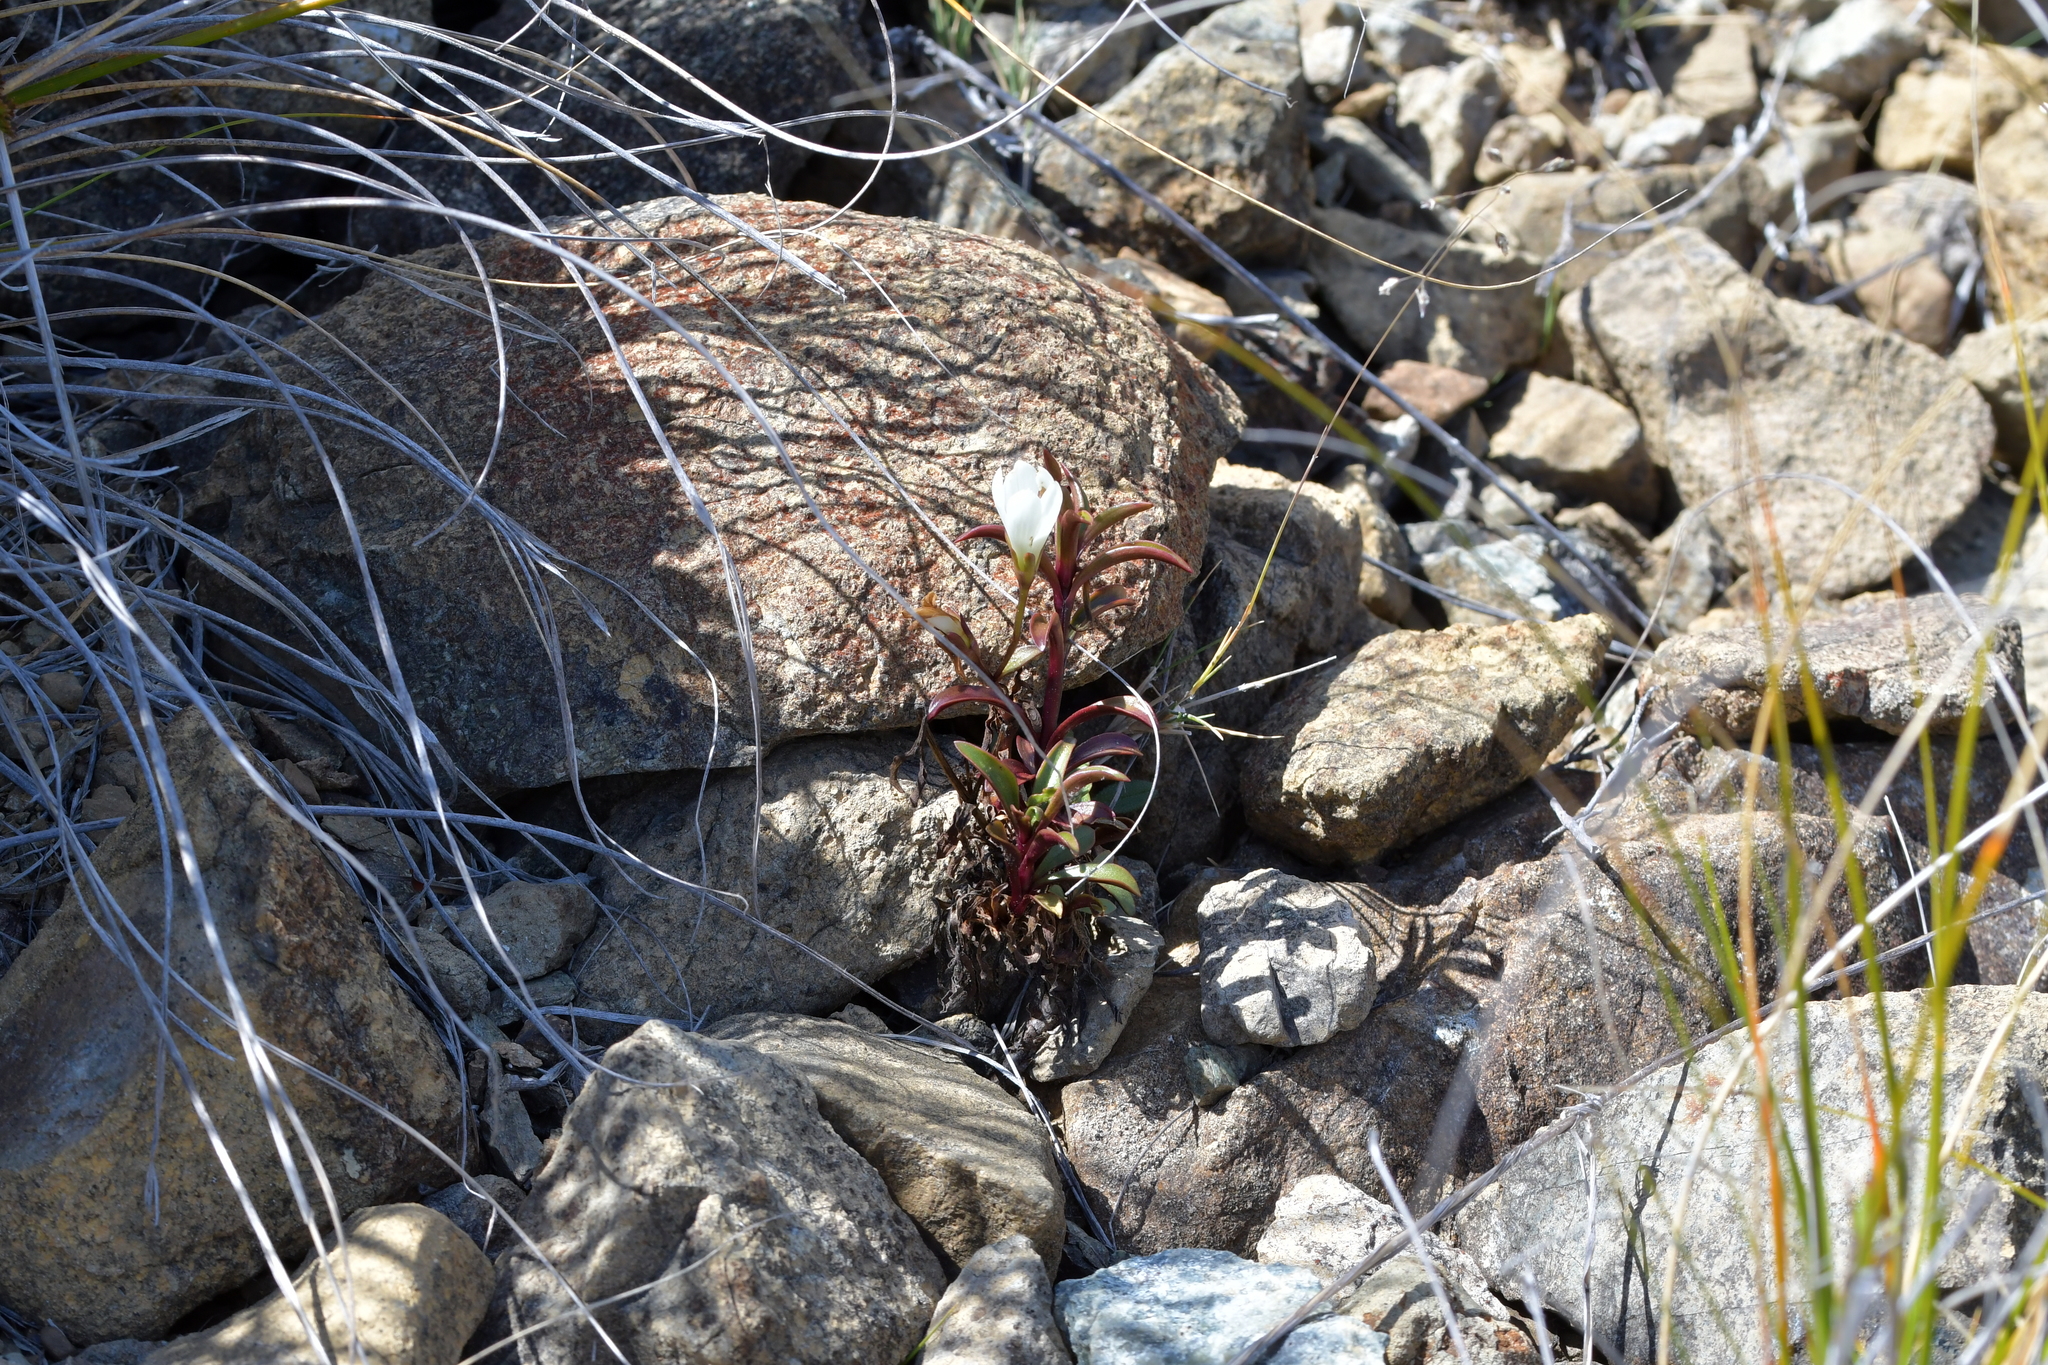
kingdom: Plantae
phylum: Tracheophyta
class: Magnoliopsida
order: Gentianales
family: Gentianaceae
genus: Gentianella
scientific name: Gentianella stellata
